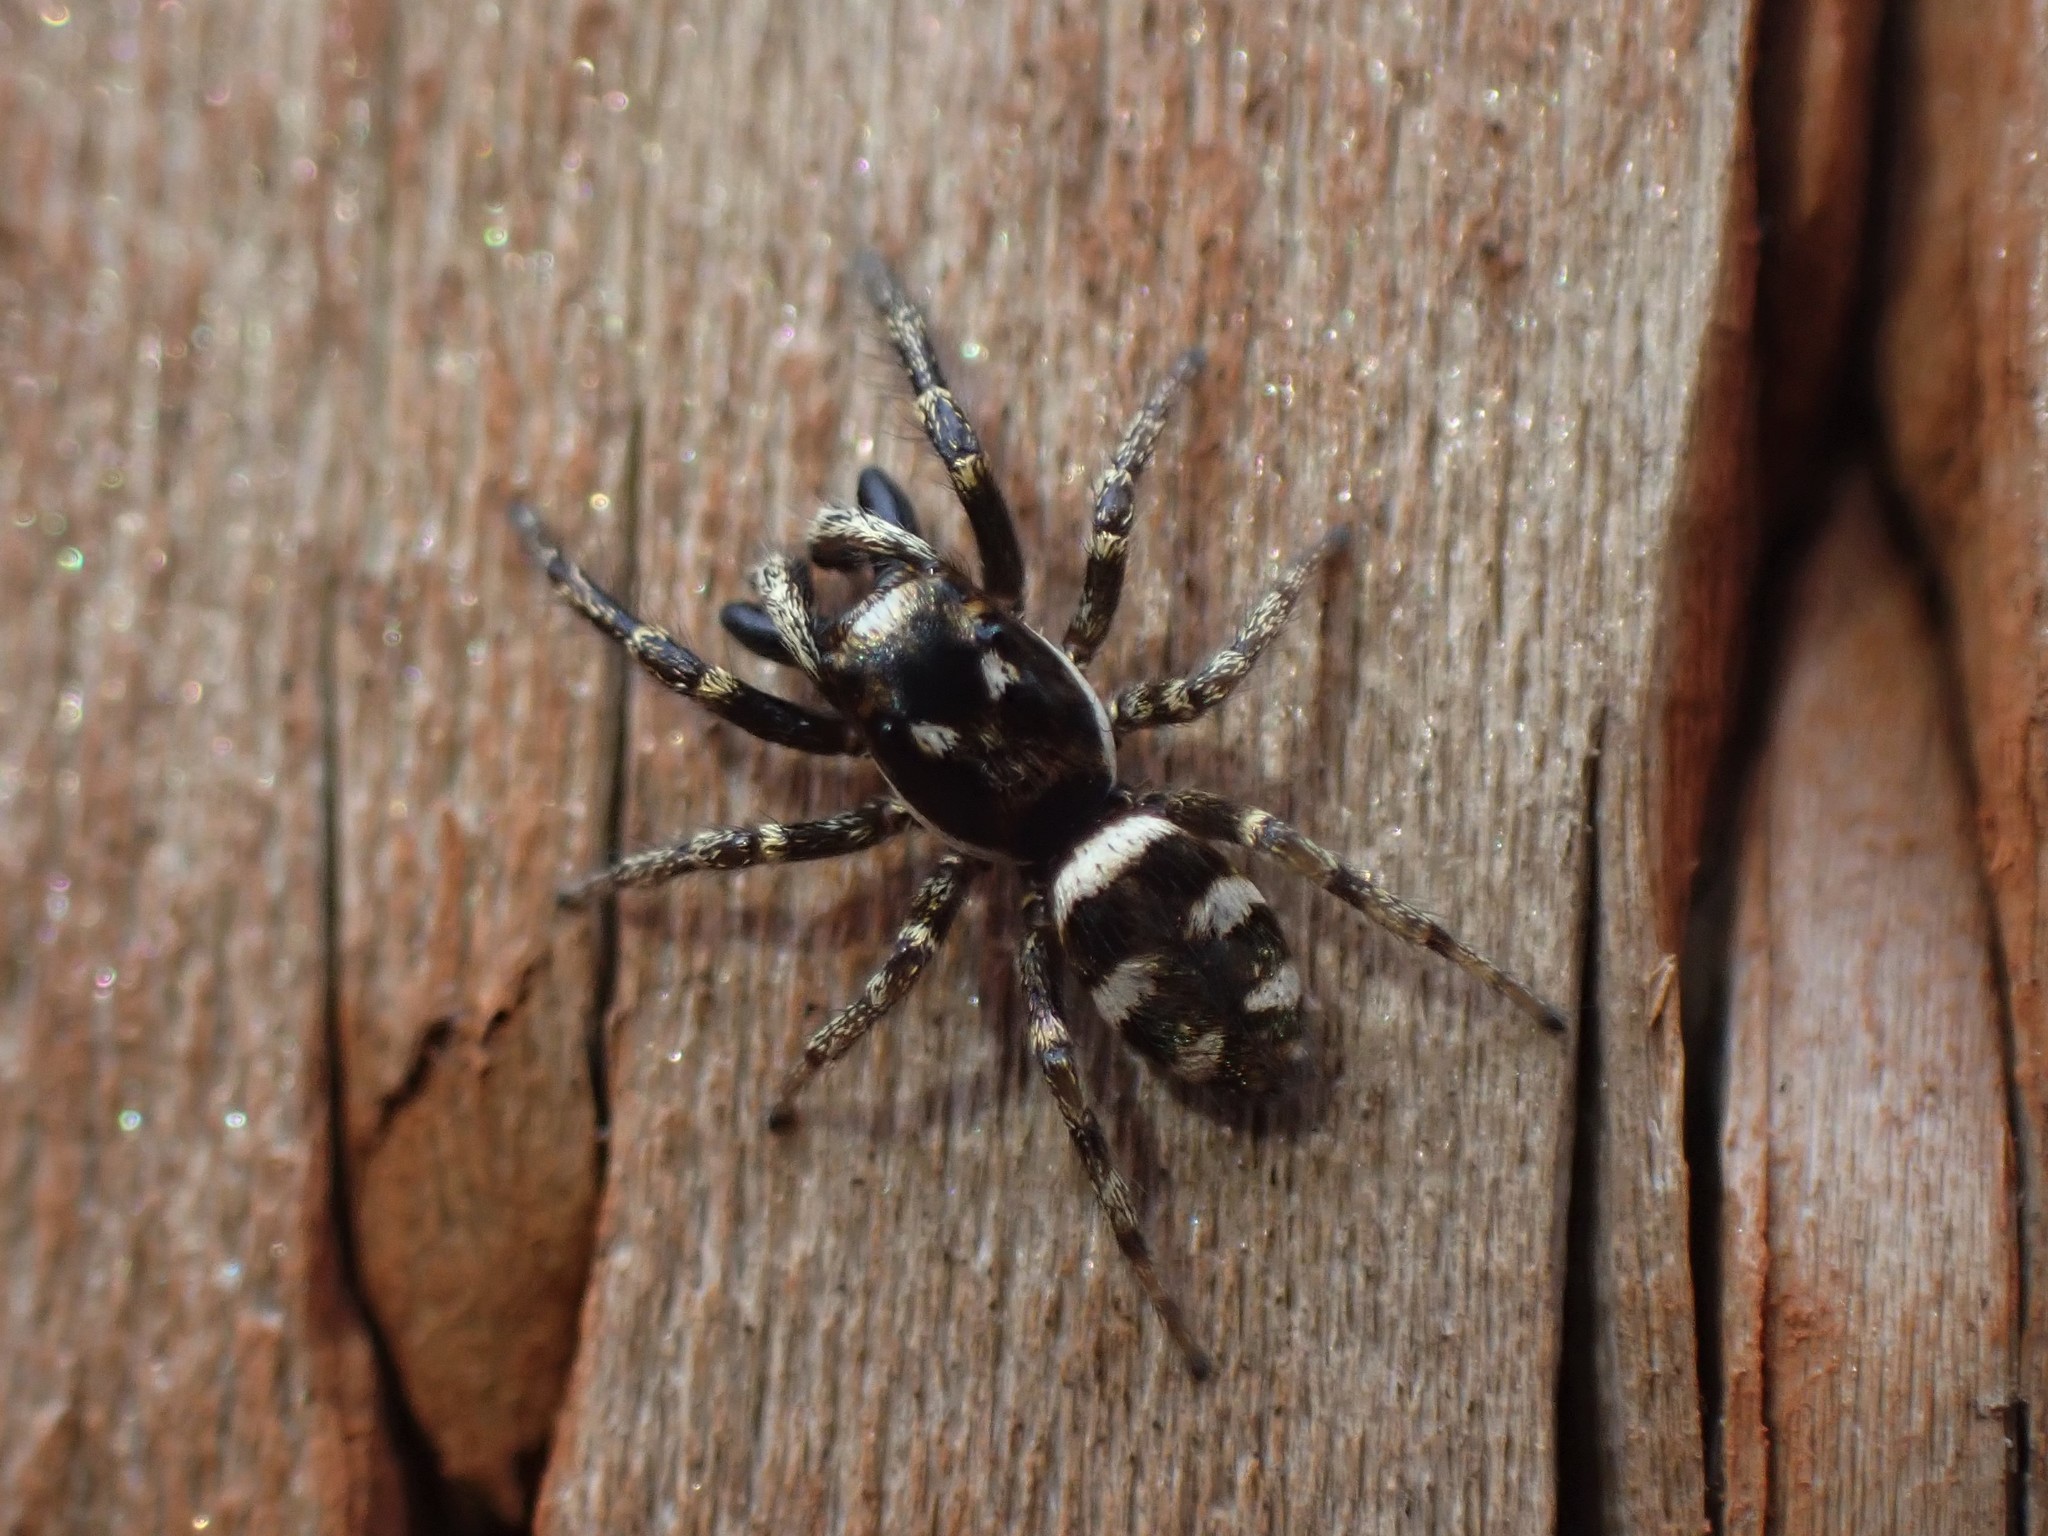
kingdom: Animalia
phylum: Arthropoda
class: Arachnida
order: Araneae
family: Salticidae
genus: Salticus
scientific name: Salticus scenicus
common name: Zebra jumper
